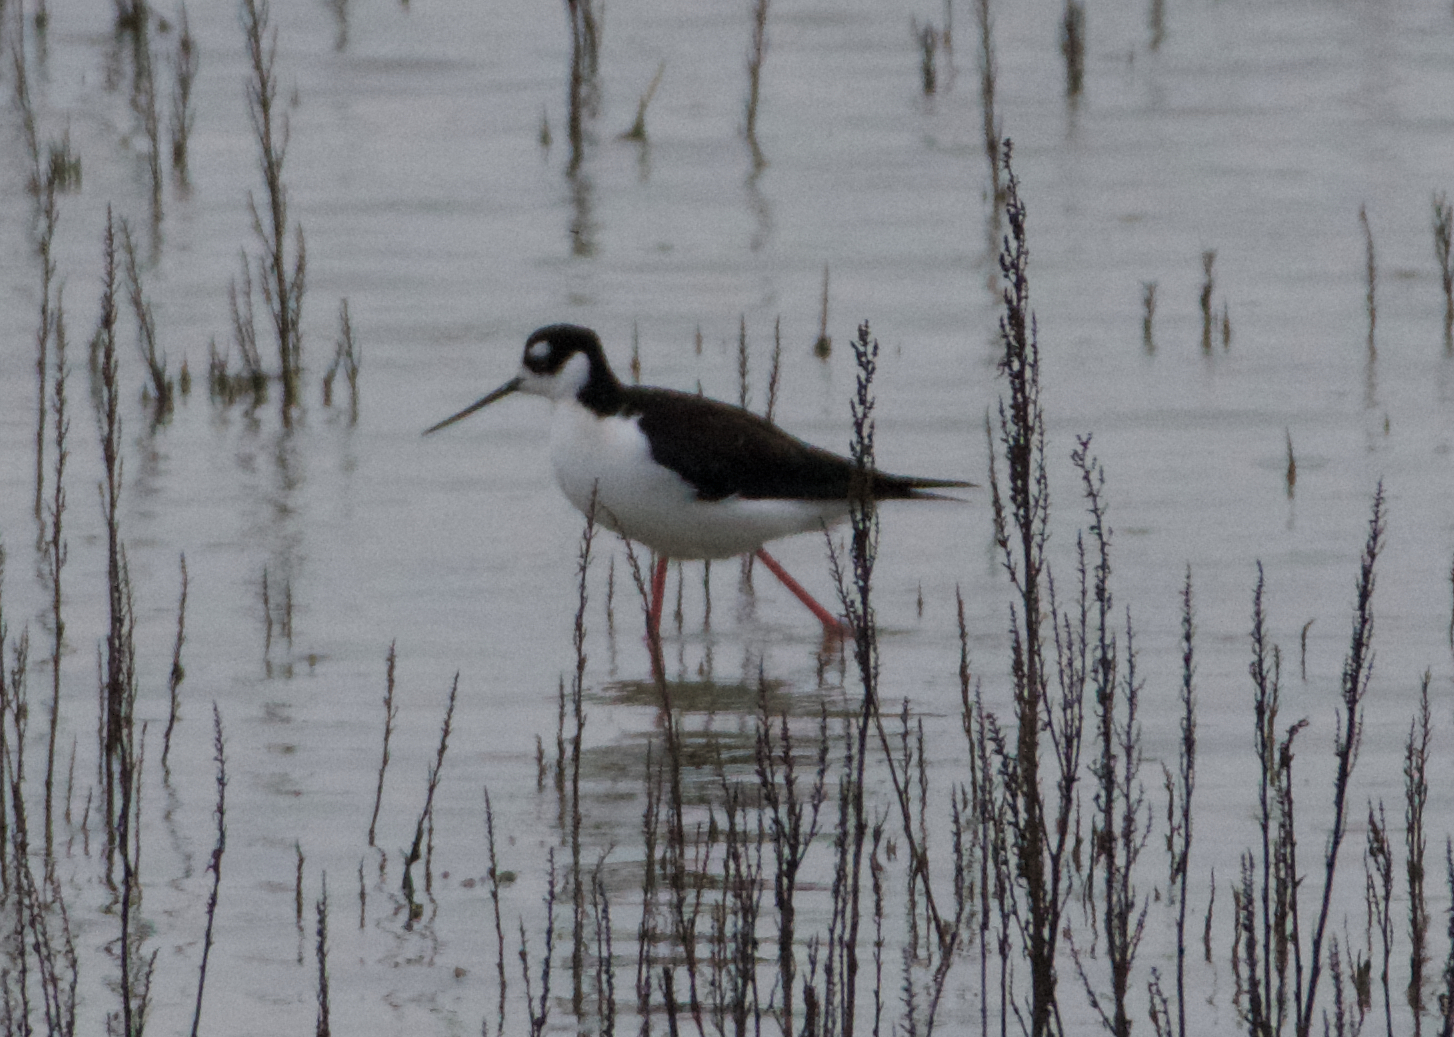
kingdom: Animalia
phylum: Chordata
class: Aves
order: Charadriiformes
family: Recurvirostridae
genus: Himantopus
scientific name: Himantopus mexicanus
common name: Black-necked stilt
